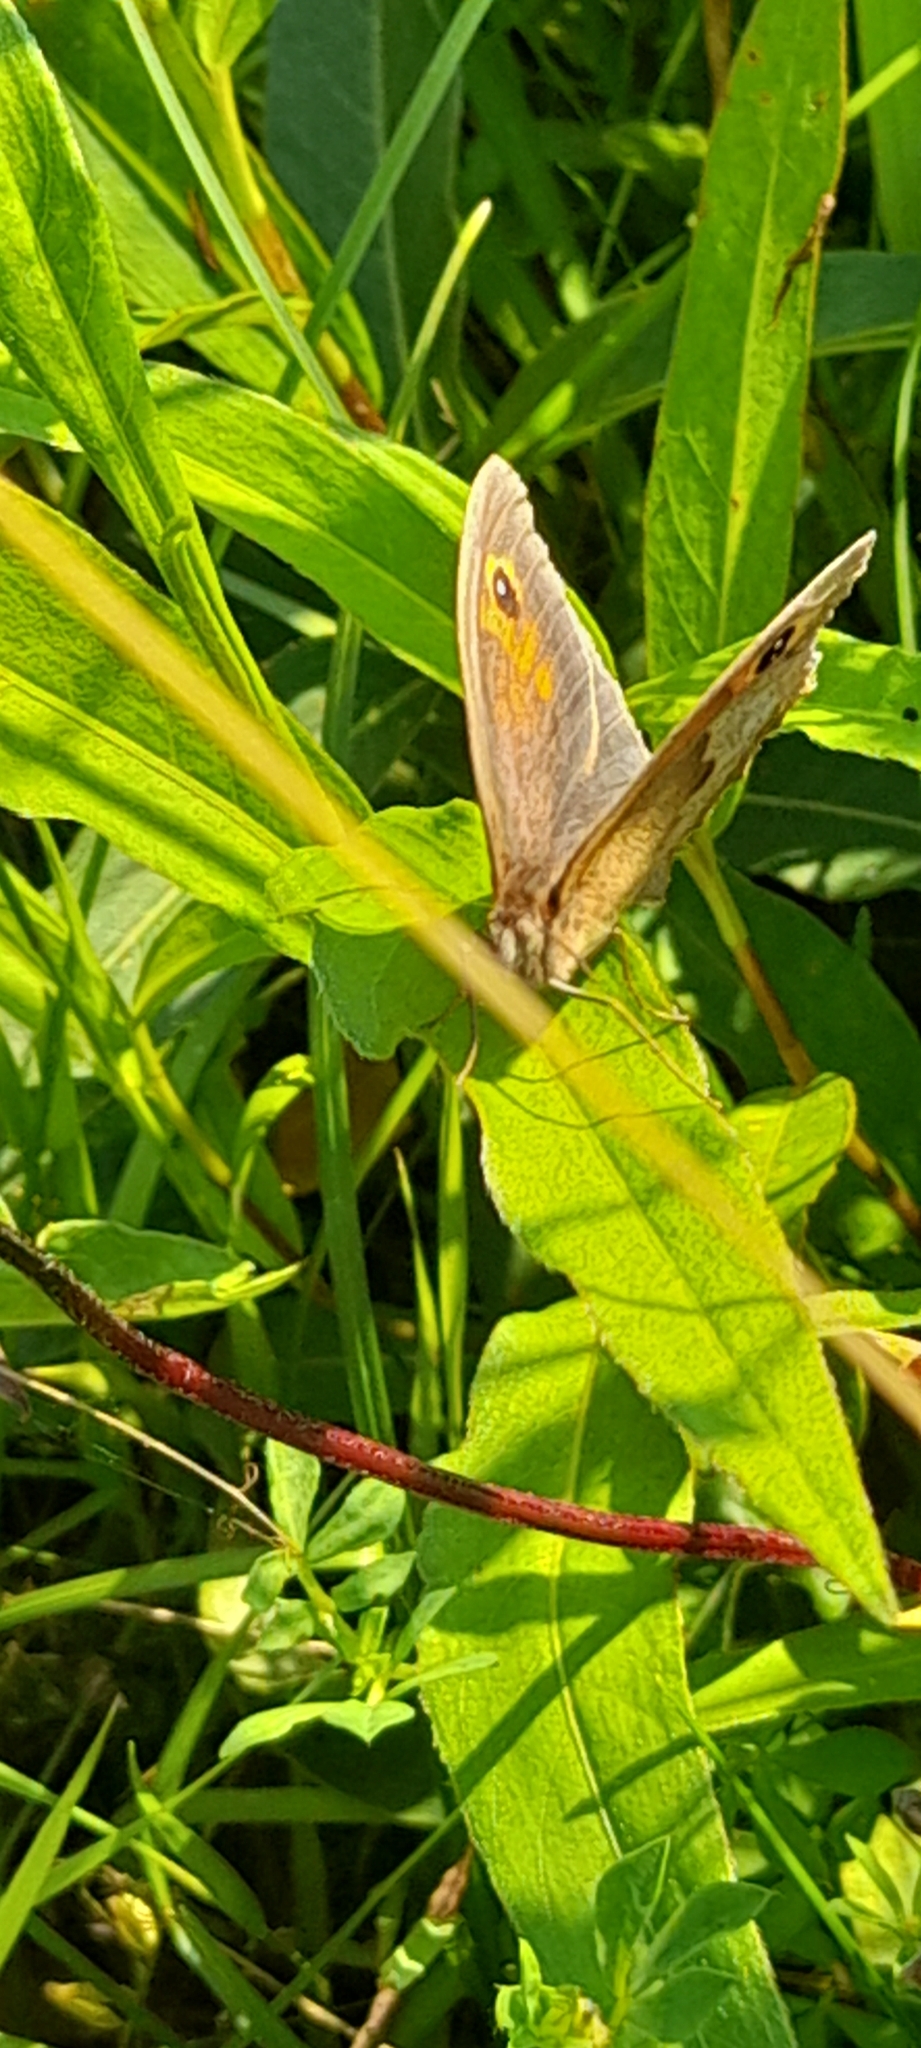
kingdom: Animalia
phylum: Arthropoda
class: Insecta
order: Lepidoptera
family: Nymphalidae
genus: Maniola
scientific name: Maniola jurtina
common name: Meadow brown
